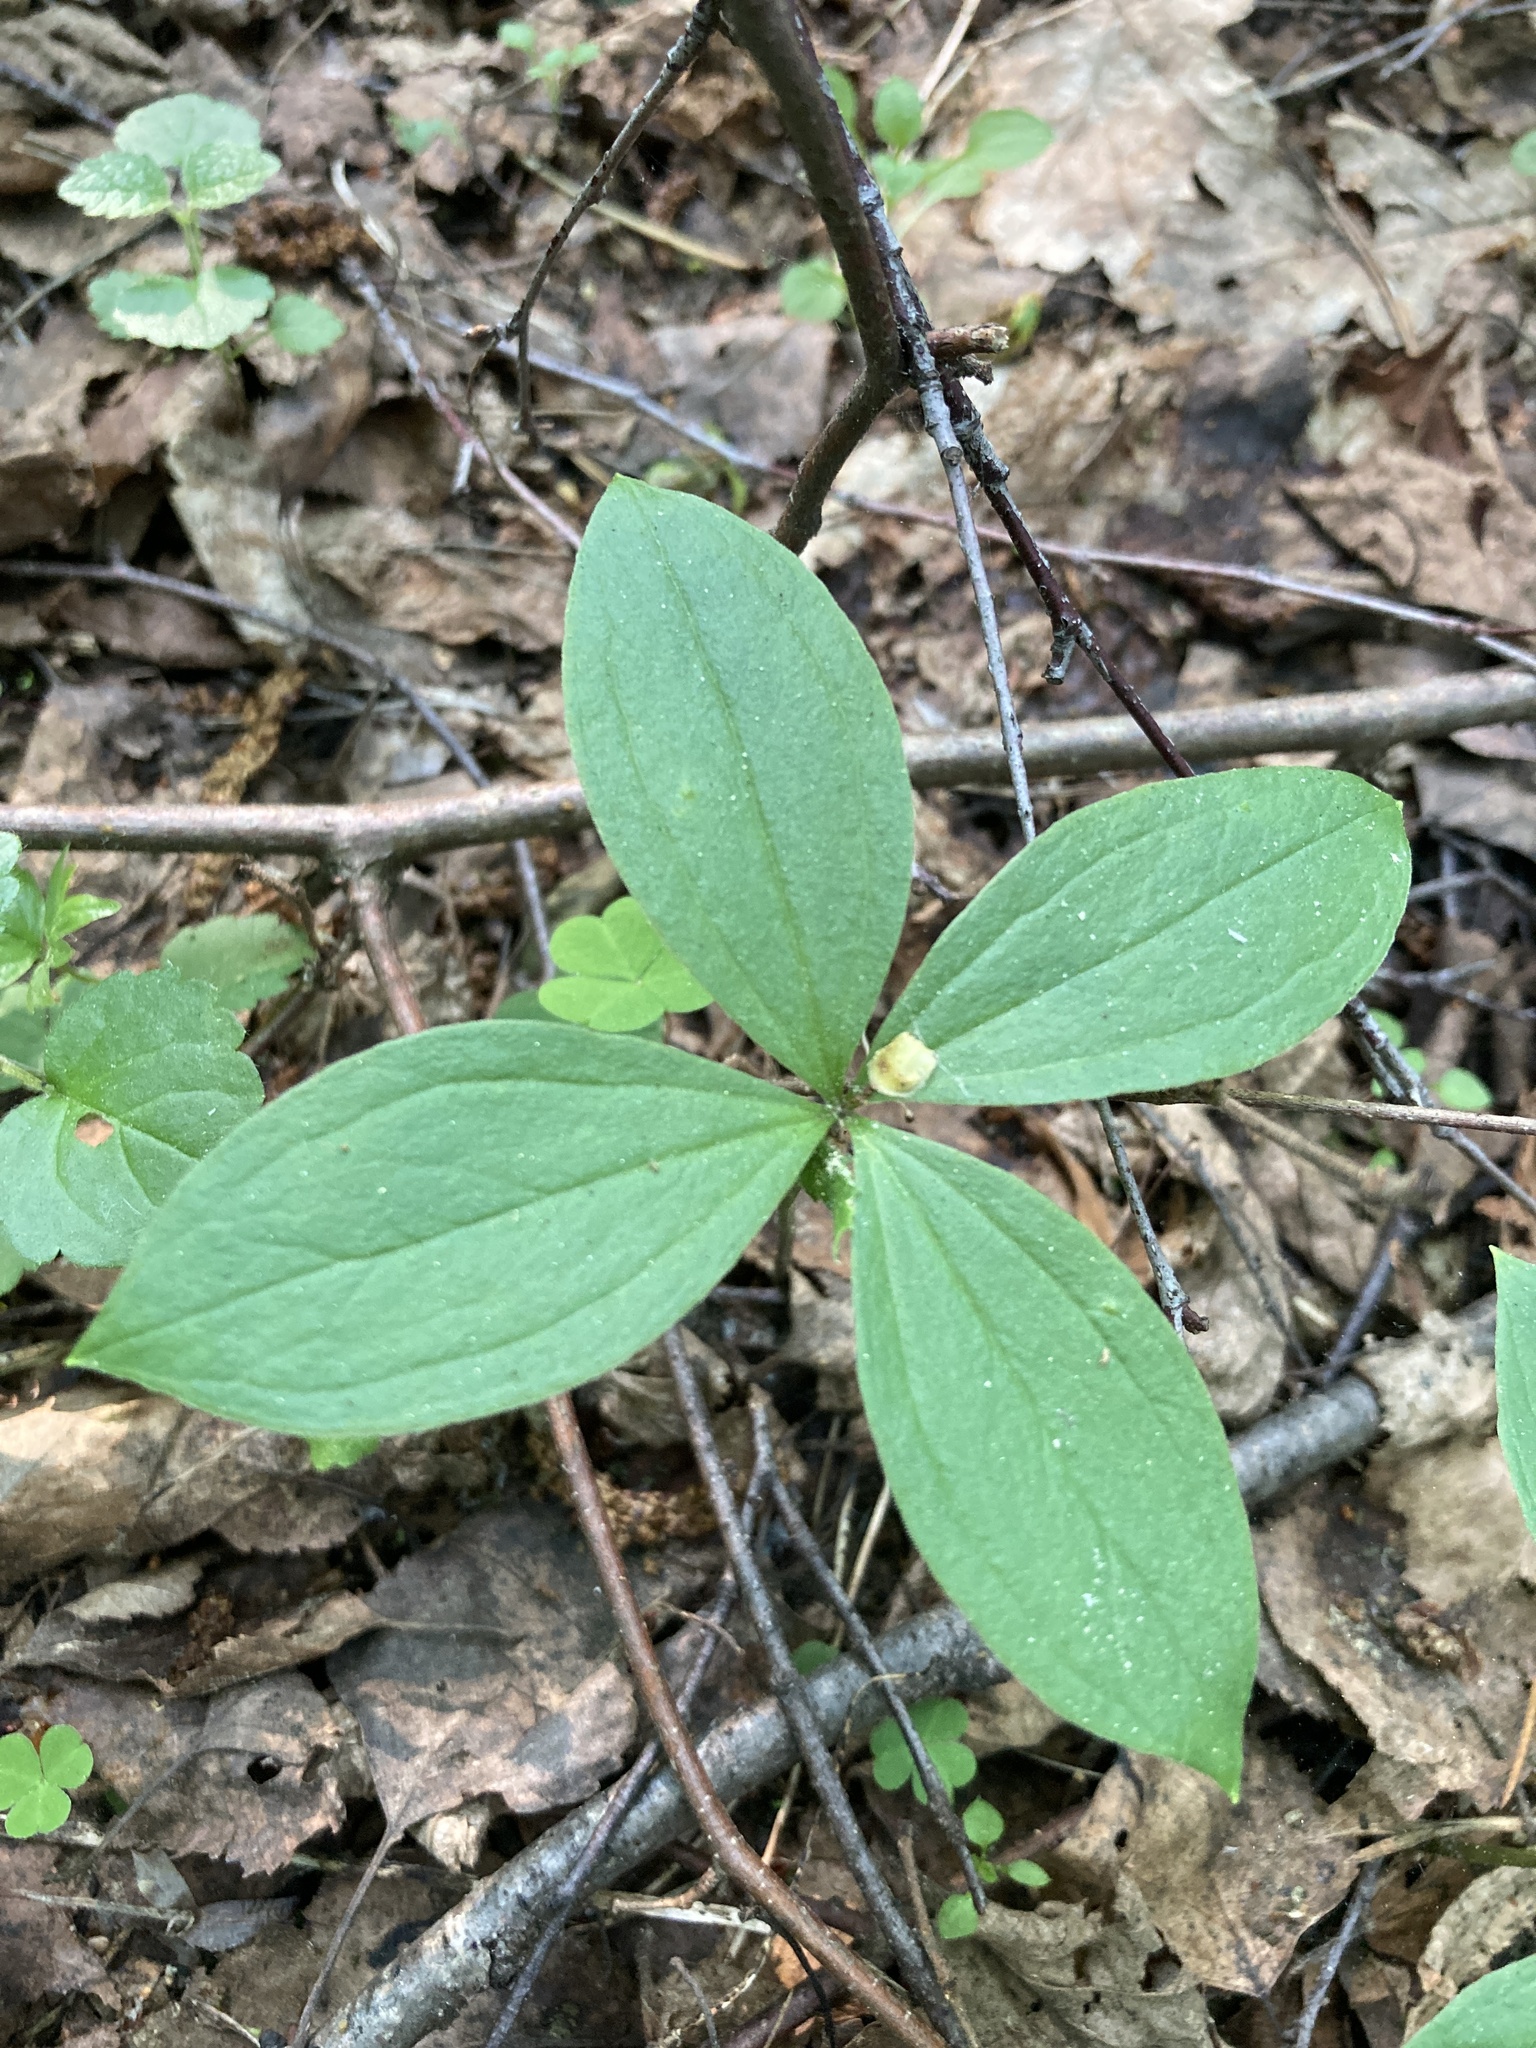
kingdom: Plantae
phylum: Tracheophyta
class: Liliopsida
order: Liliales
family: Melanthiaceae
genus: Paris
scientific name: Paris quadrifolia
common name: Herb-paris
